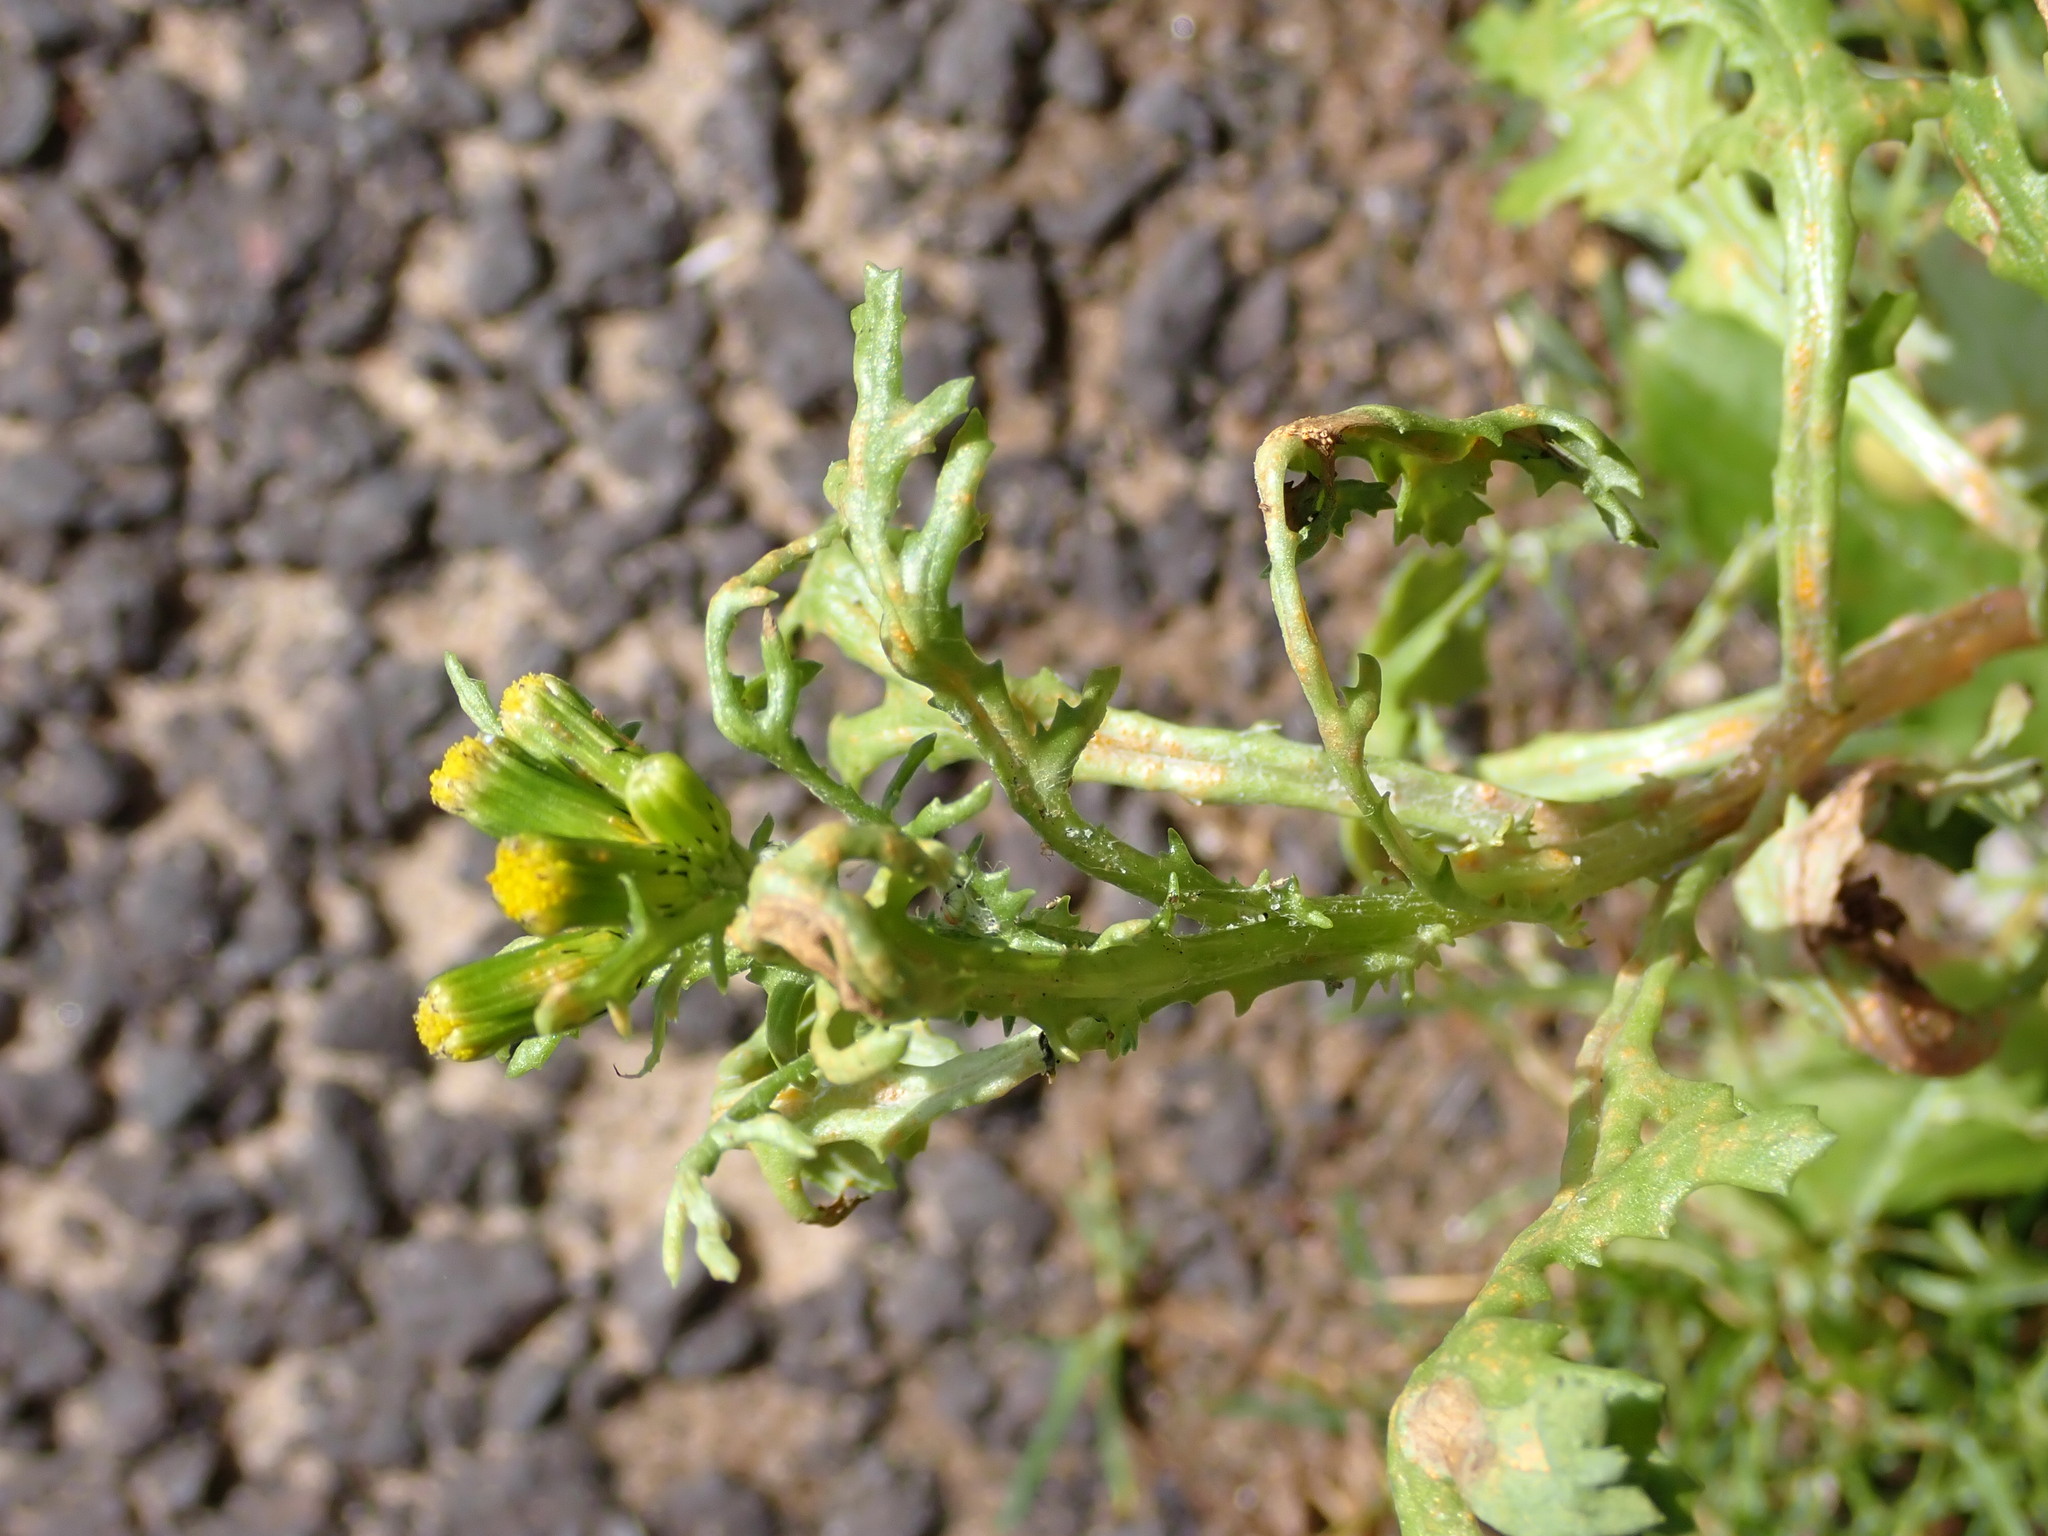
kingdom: Plantae
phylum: Tracheophyta
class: Magnoliopsida
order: Asterales
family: Asteraceae
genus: Senecio
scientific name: Senecio vulgaris
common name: Old-man-in-the-spring
